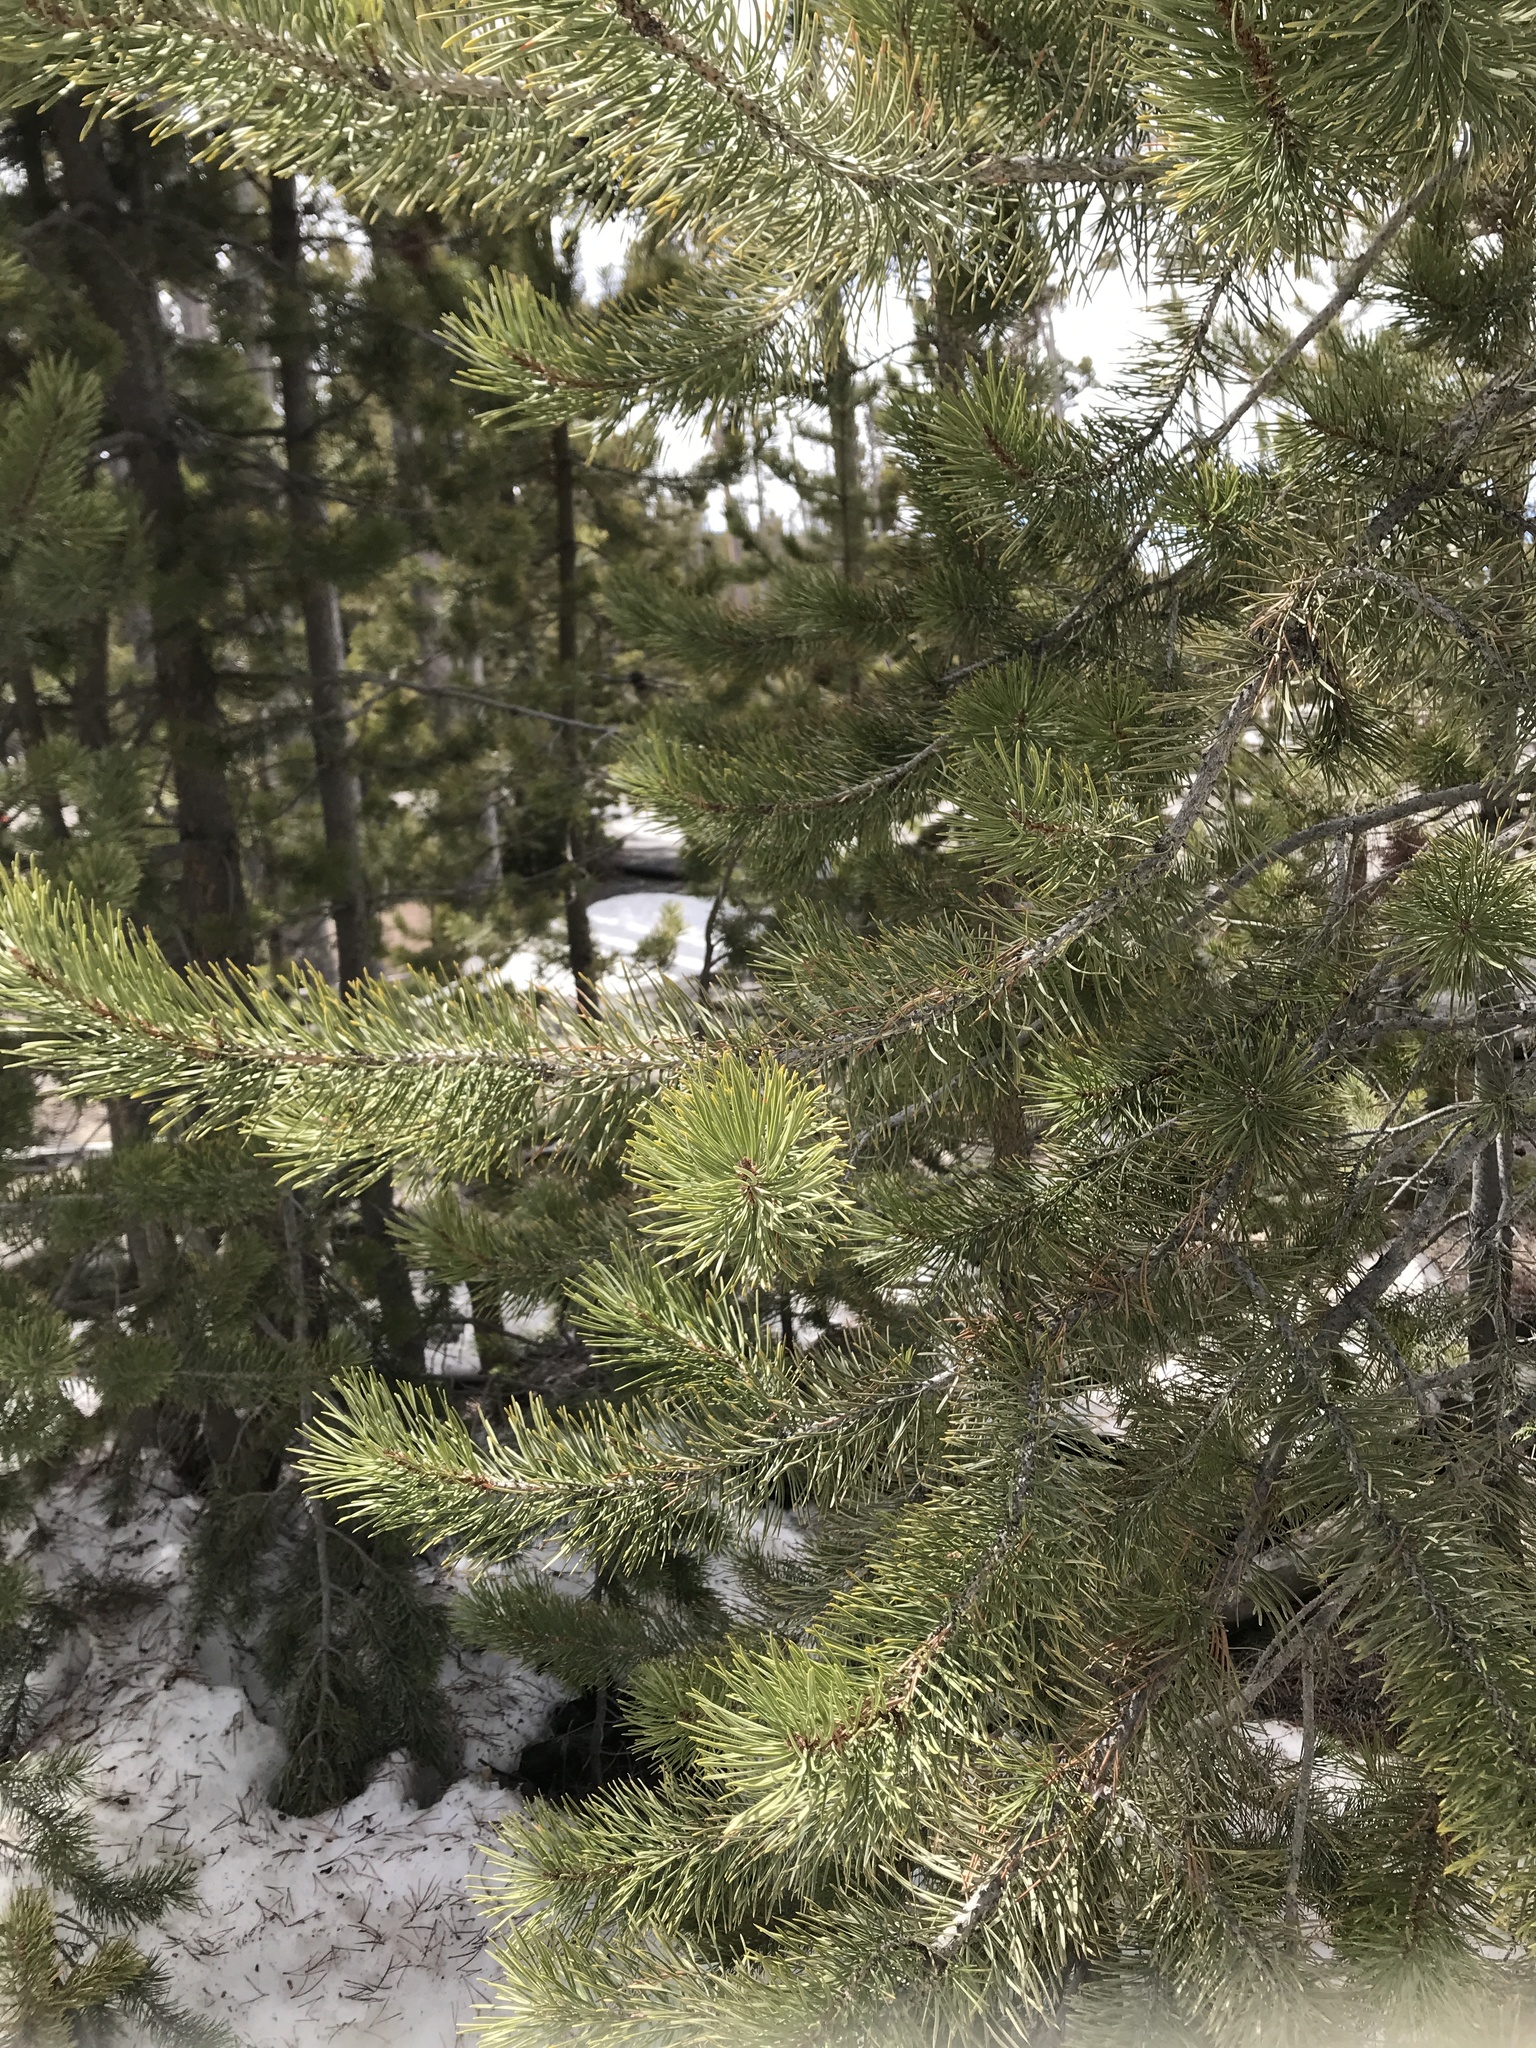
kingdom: Plantae
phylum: Tracheophyta
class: Pinopsida
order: Pinales
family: Pinaceae
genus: Pinus
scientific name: Pinus contorta
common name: Lodgepole pine
